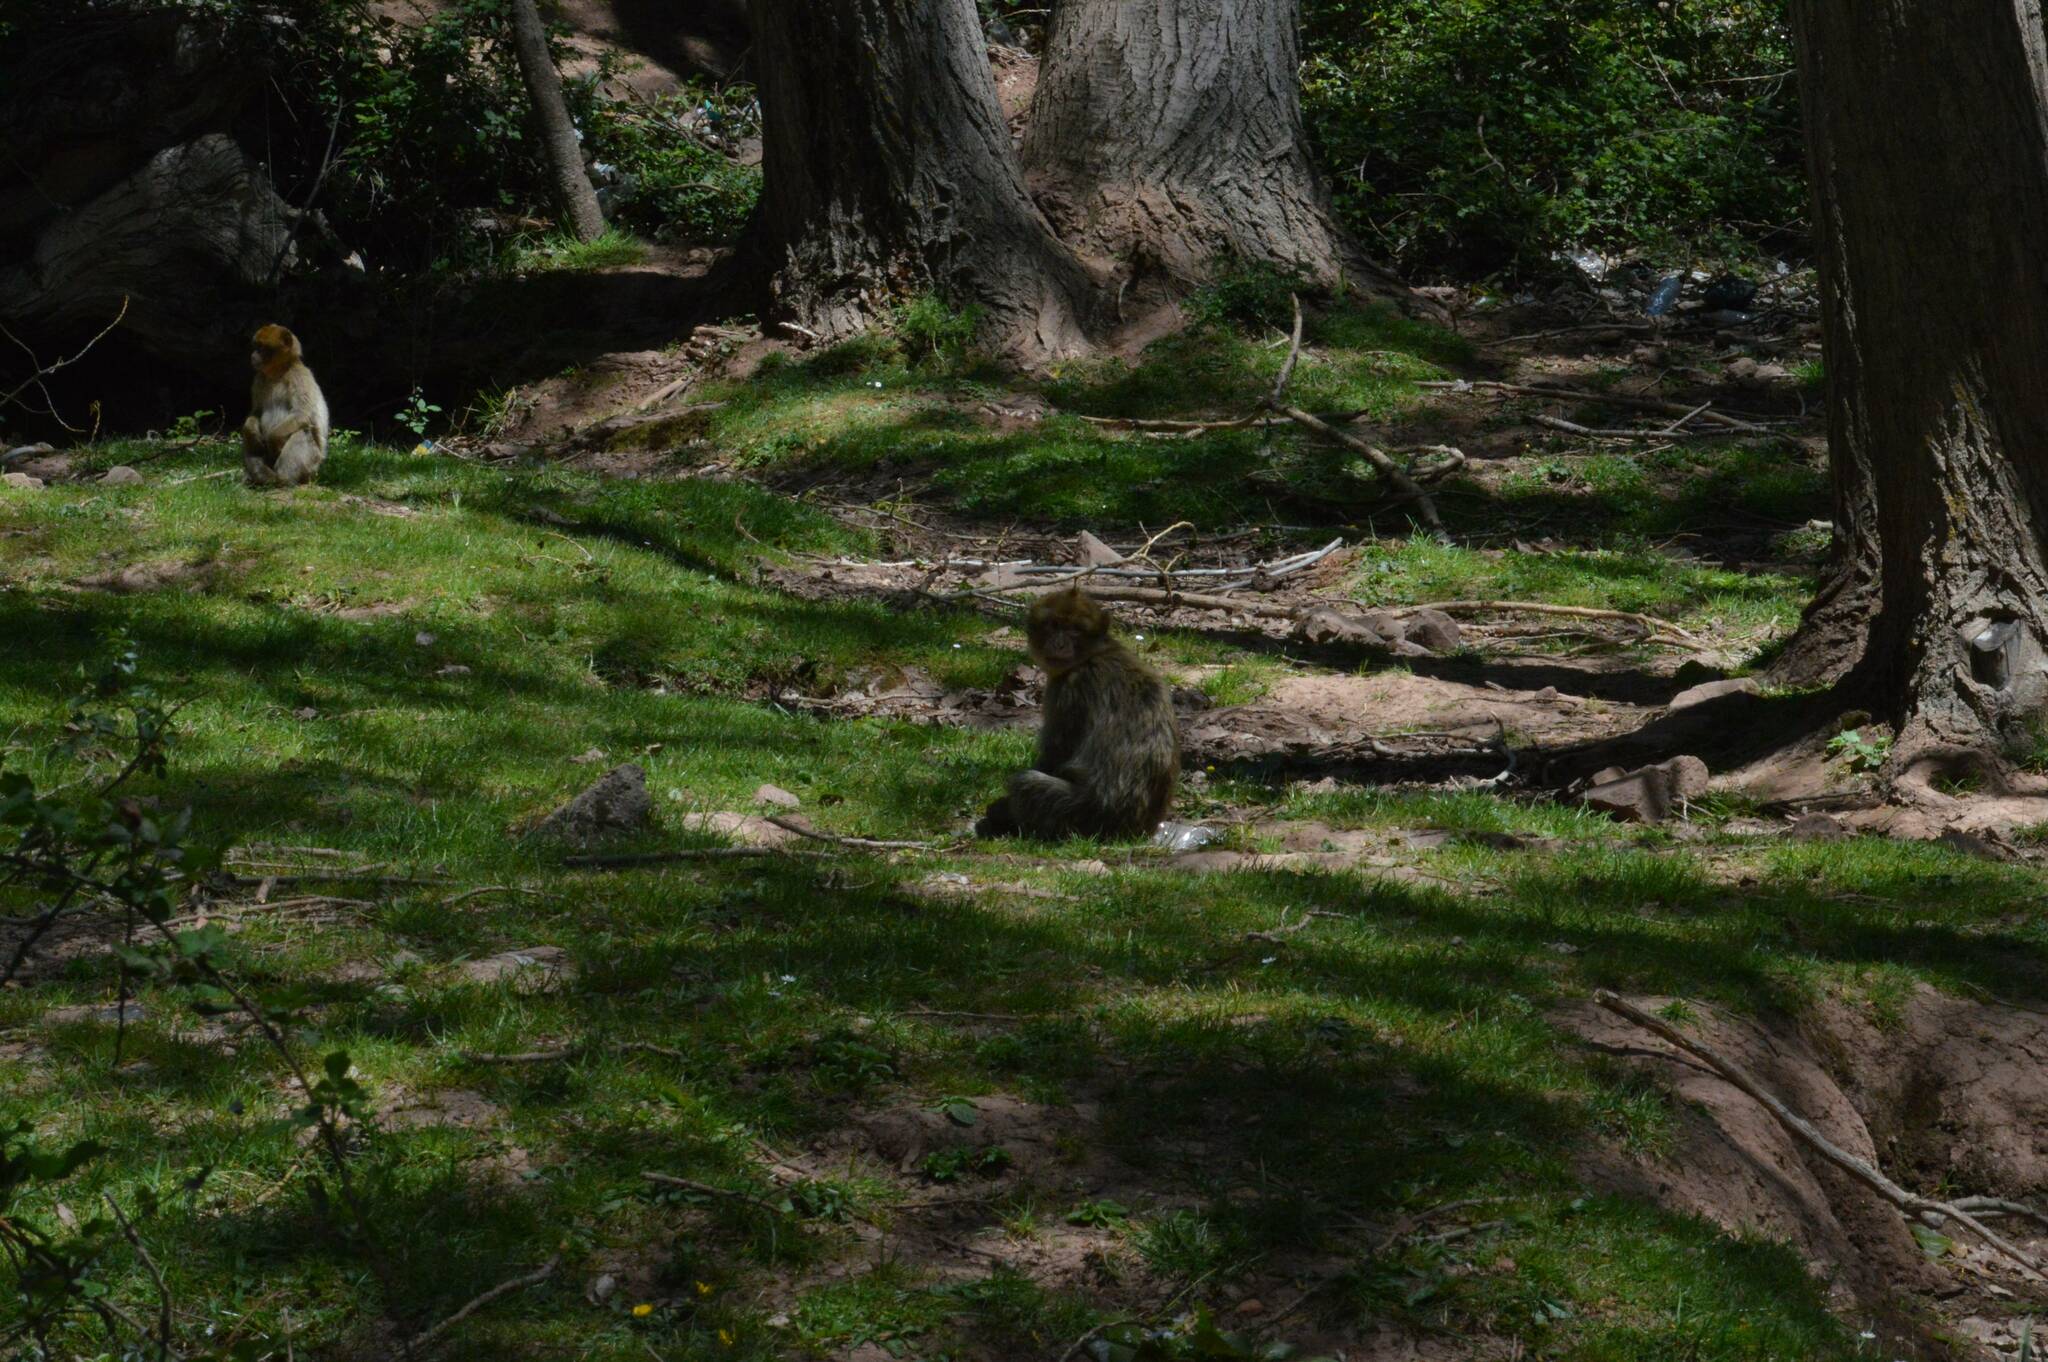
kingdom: Animalia
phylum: Chordata
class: Mammalia
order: Primates
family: Cercopithecidae
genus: Macaca
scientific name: Macaca sylvanus
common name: Barbary macaque
